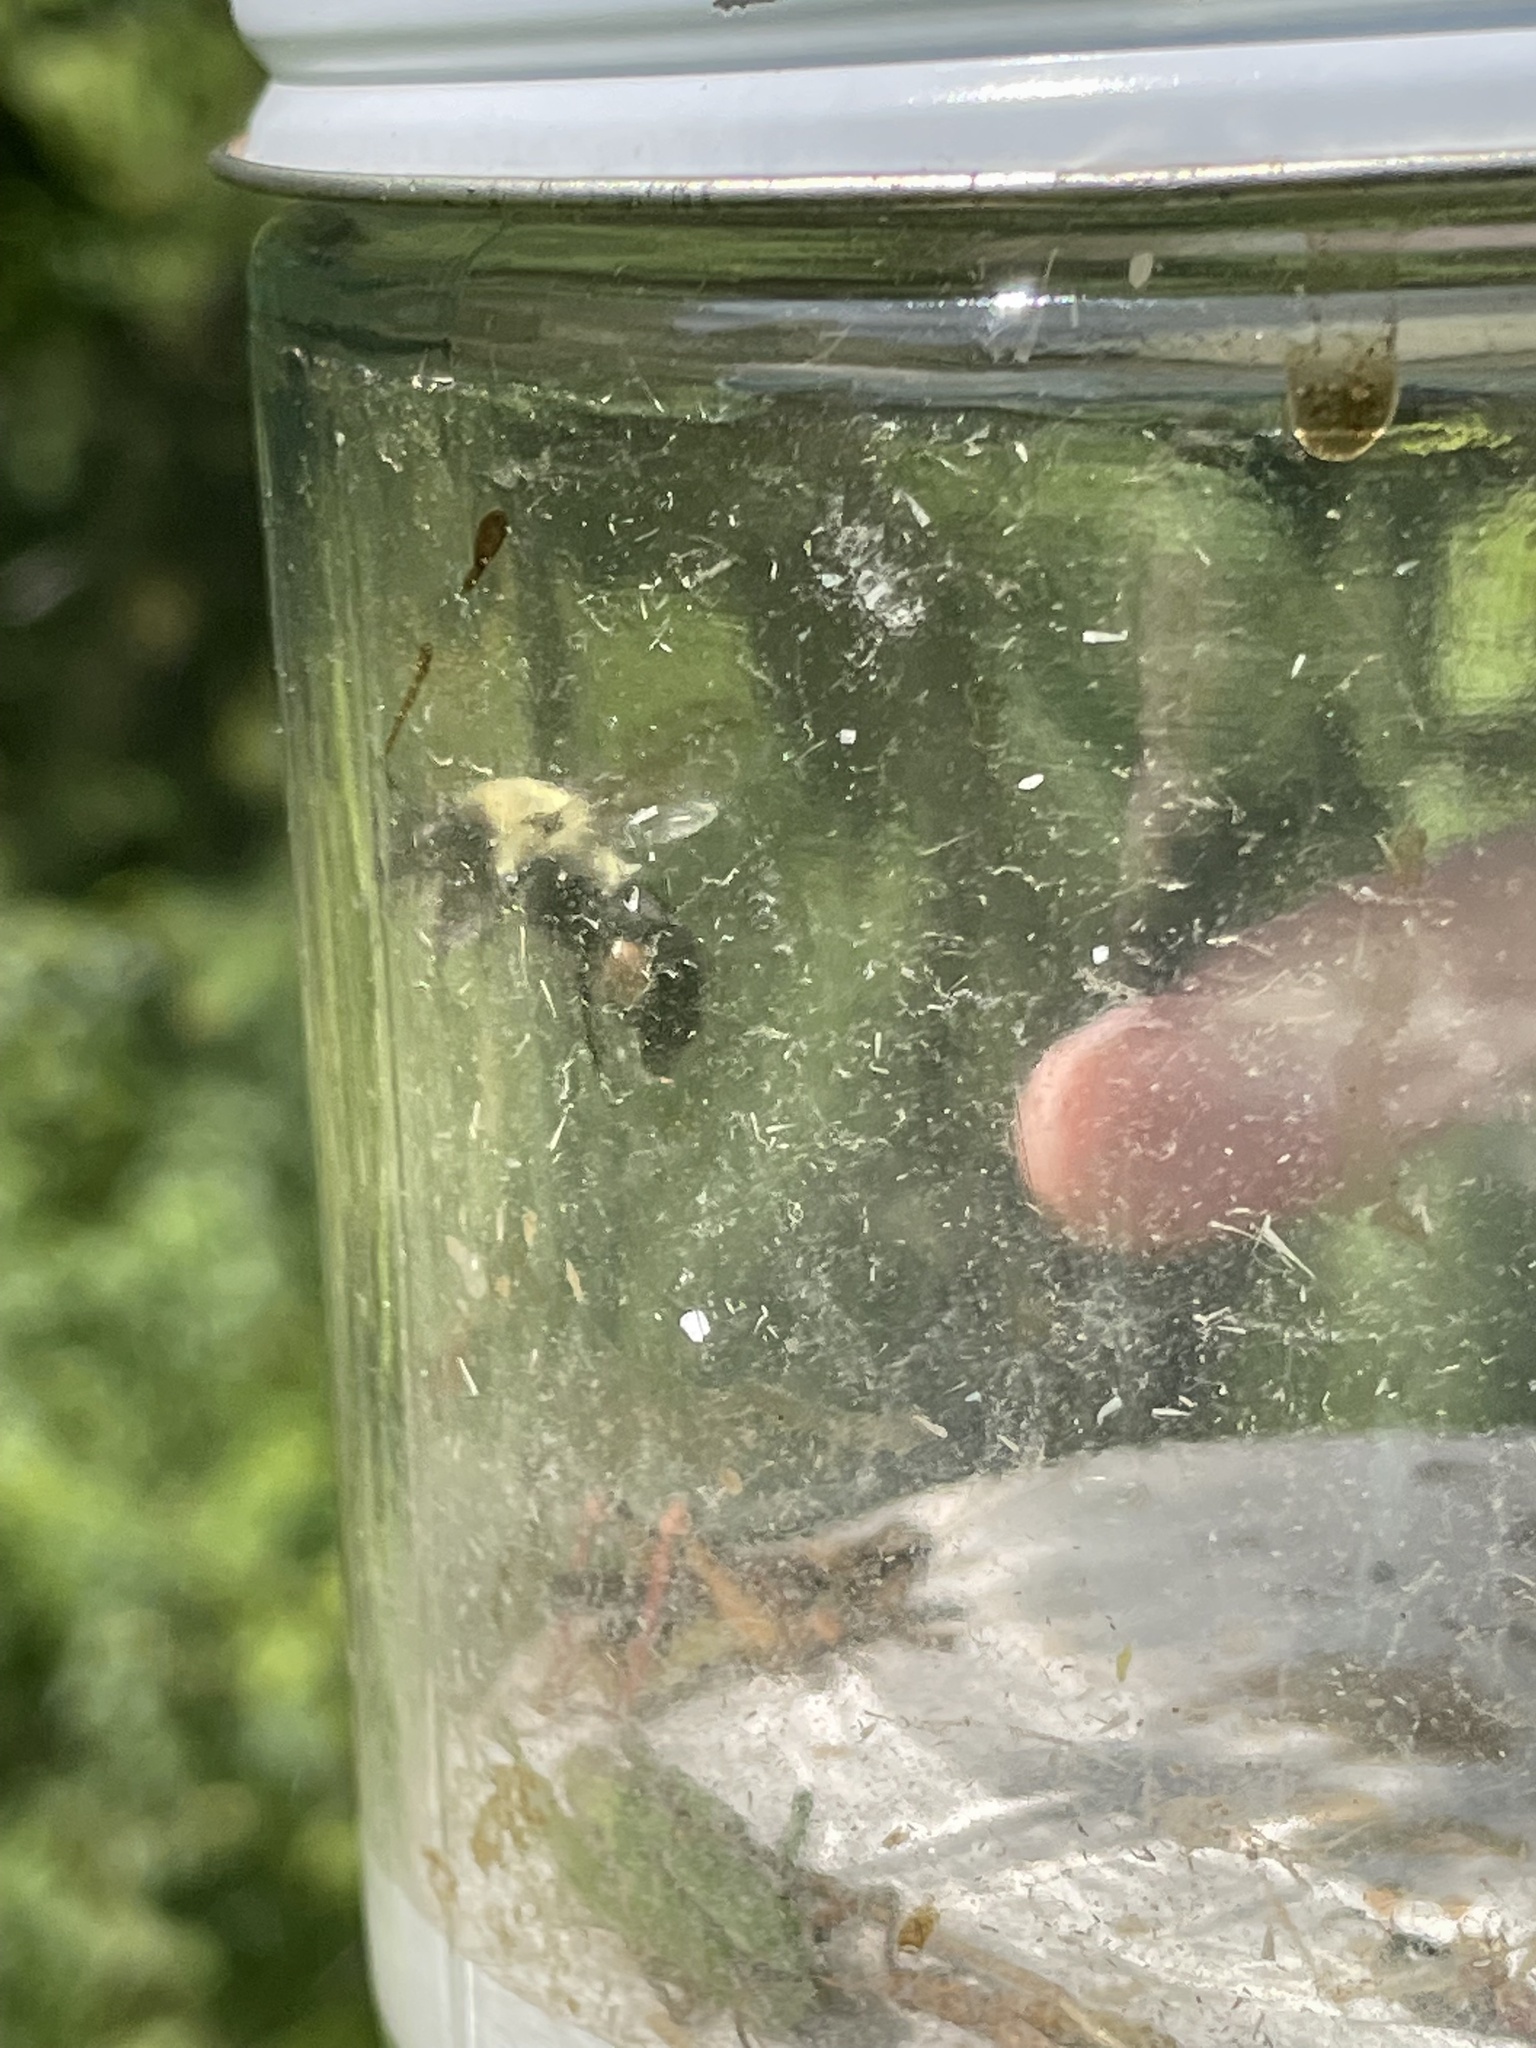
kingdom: Animalia
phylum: Arthropoda
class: Insecta
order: Hymenoptera
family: Apidae
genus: Bombus
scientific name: Bombus impatiens
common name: Common eastern bumble bee
